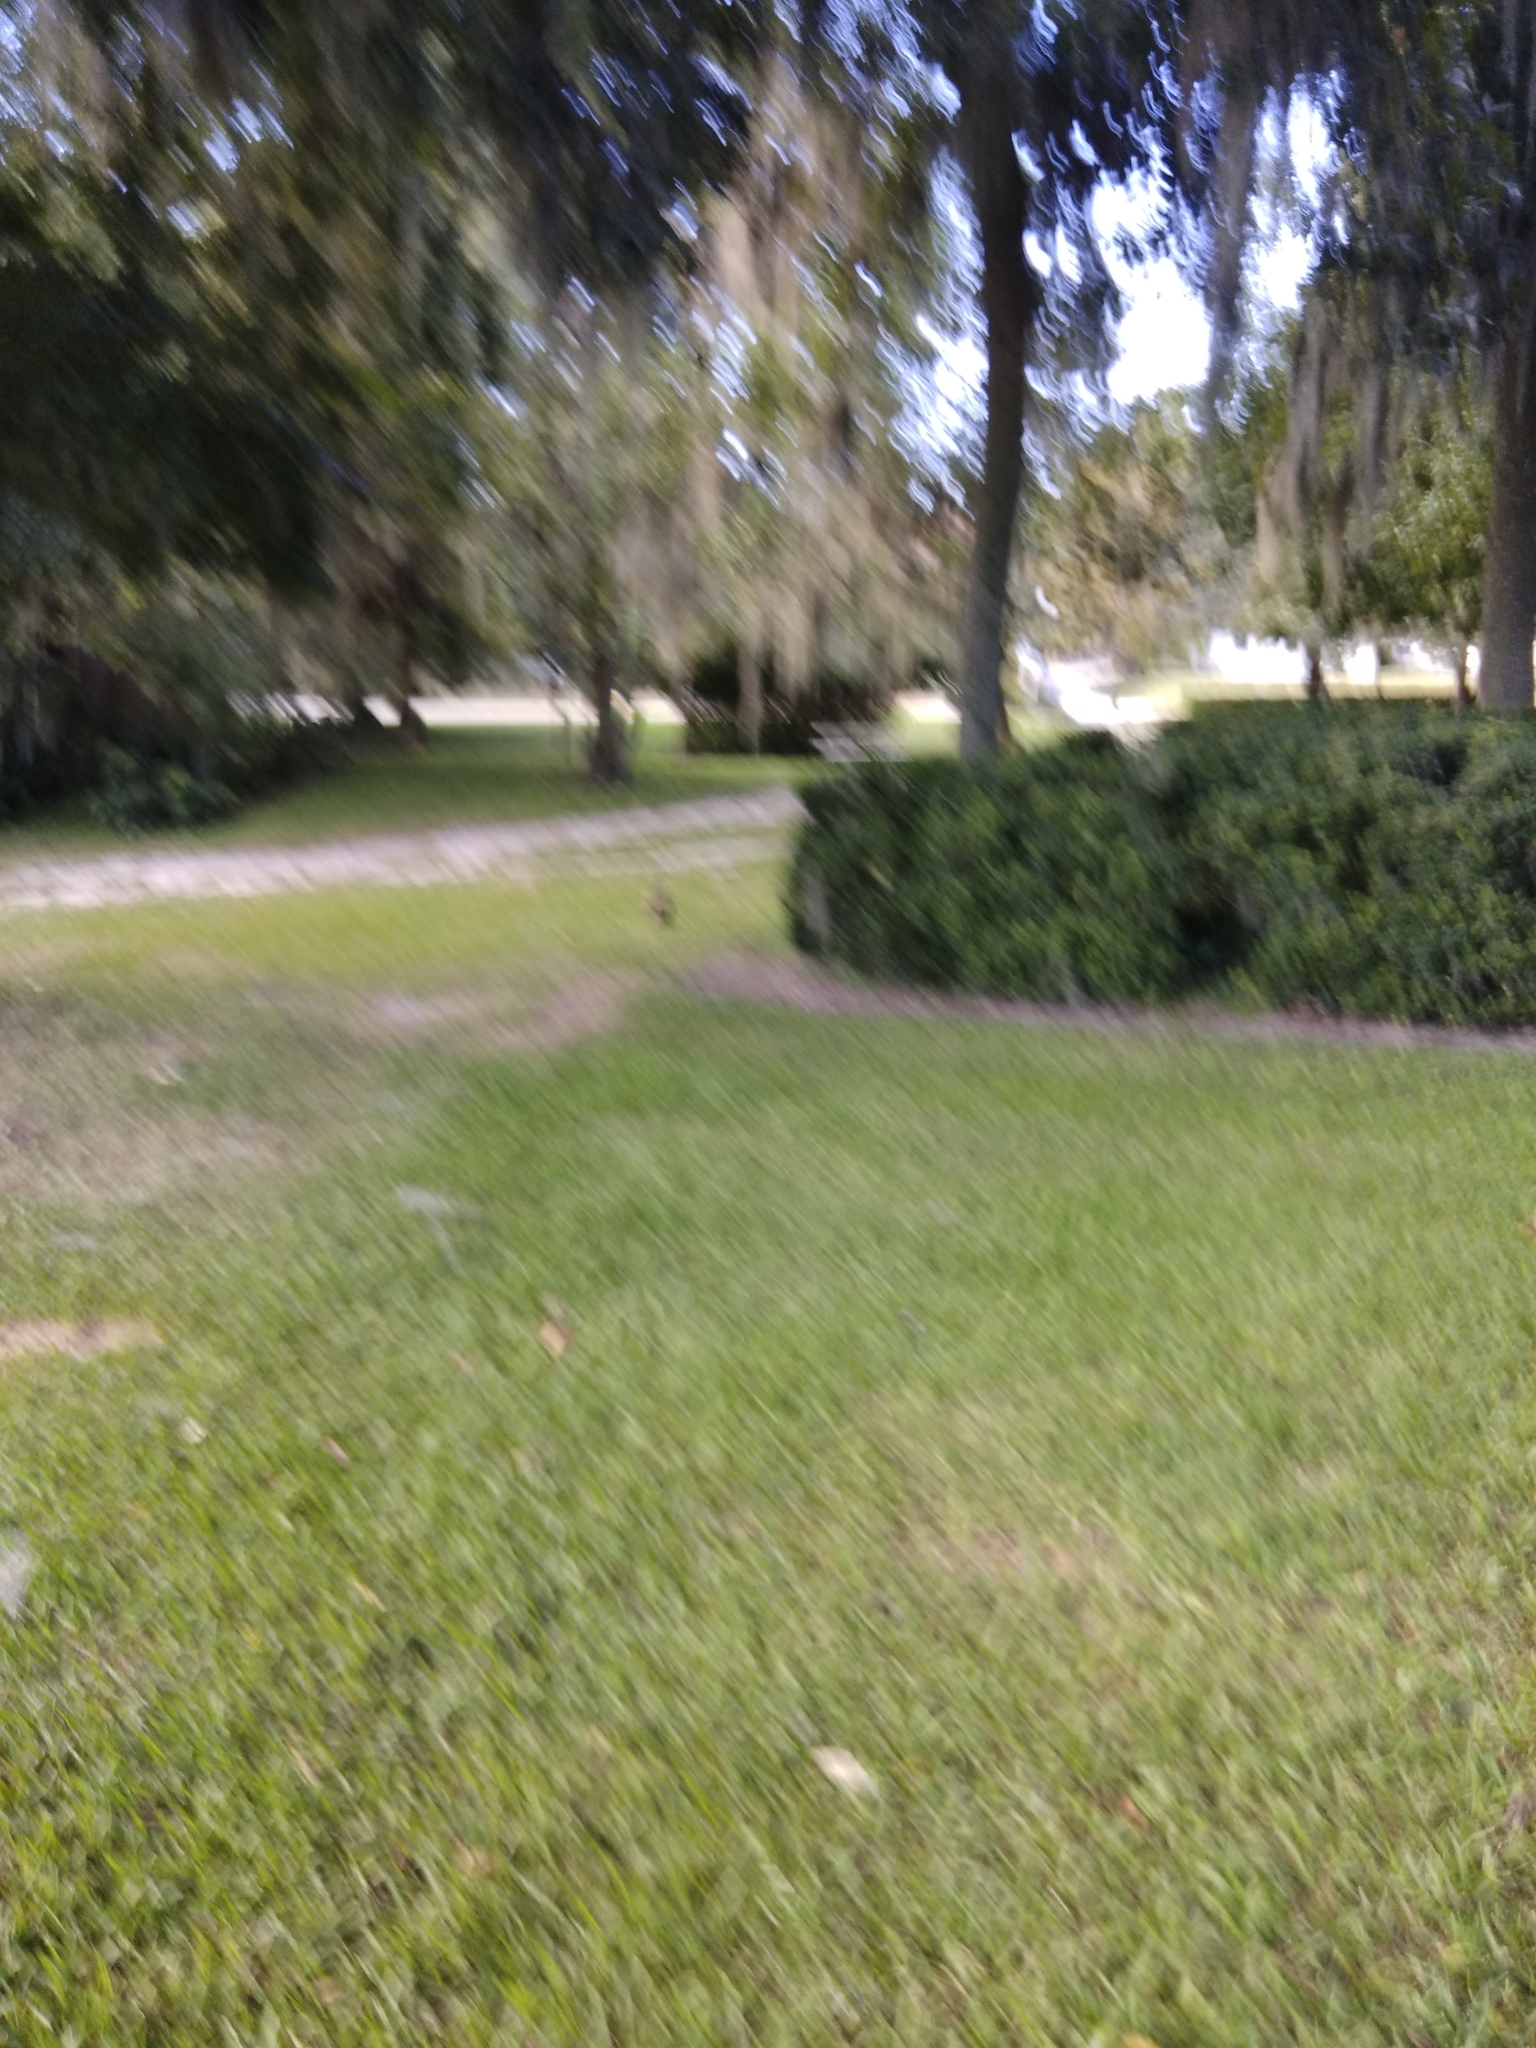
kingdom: Animalia
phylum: Chordata
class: Aves
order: Accipitriformes
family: Accipitridae
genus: Buteo
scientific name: Buteo jamaicensis
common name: Red-tailed hawk
